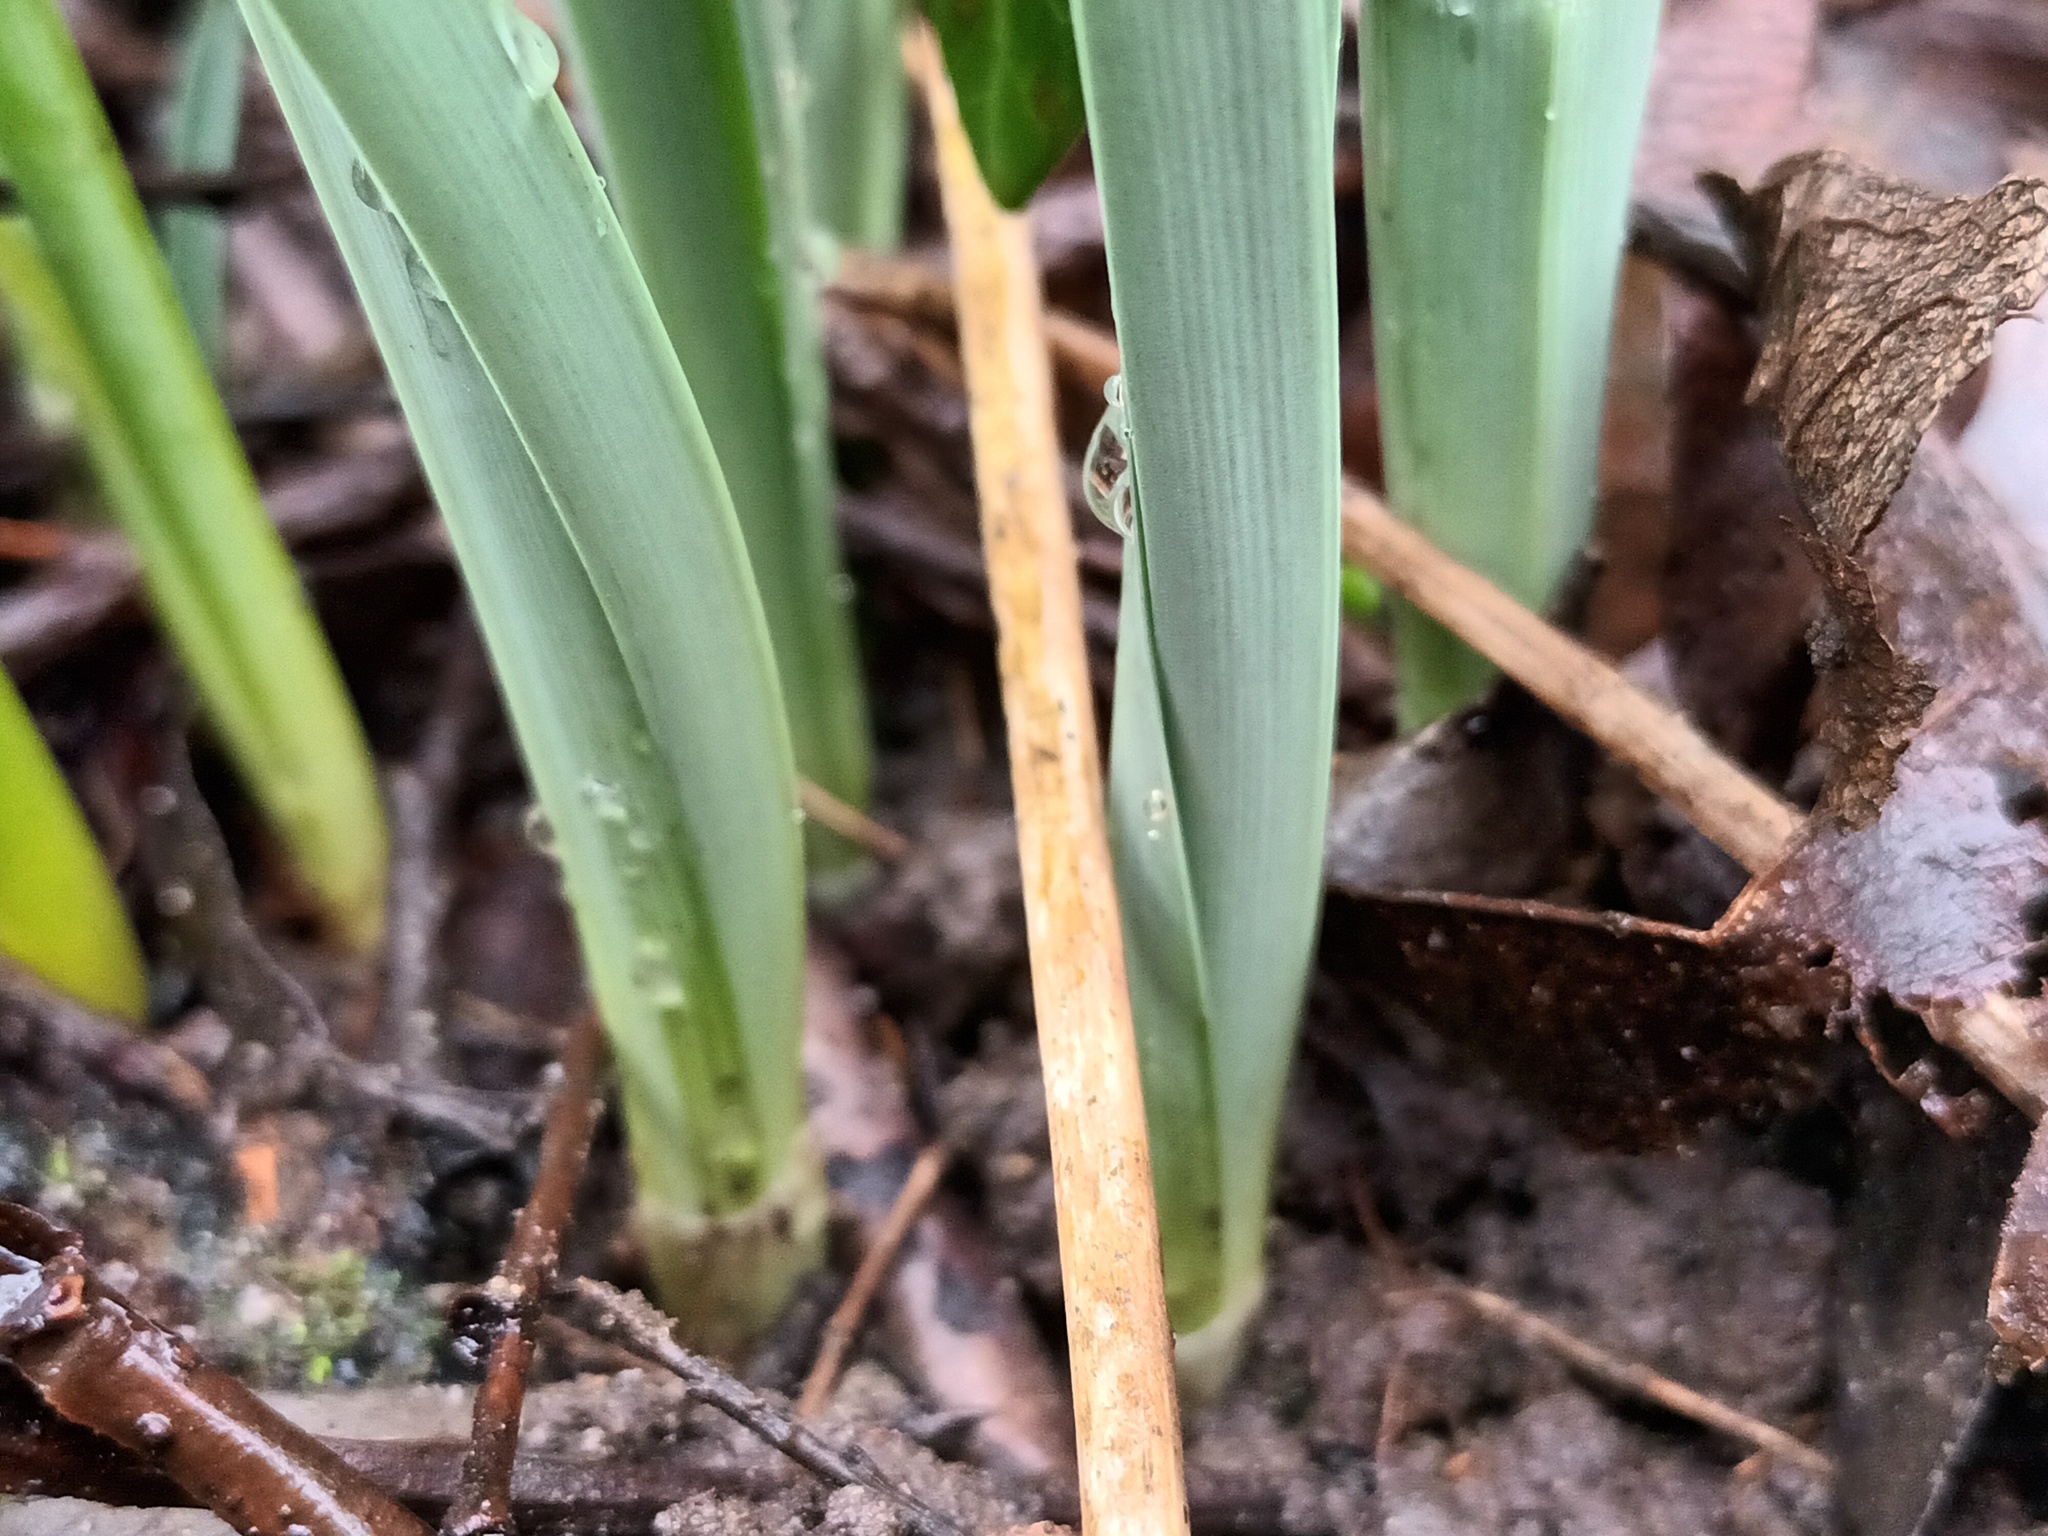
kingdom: Plantae
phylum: Tracheophyta
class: Liliopsida
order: Asparagales
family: Amaryllidaceae
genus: Galanthus
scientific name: Galanthus elwesii
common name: Greater snowdrop
